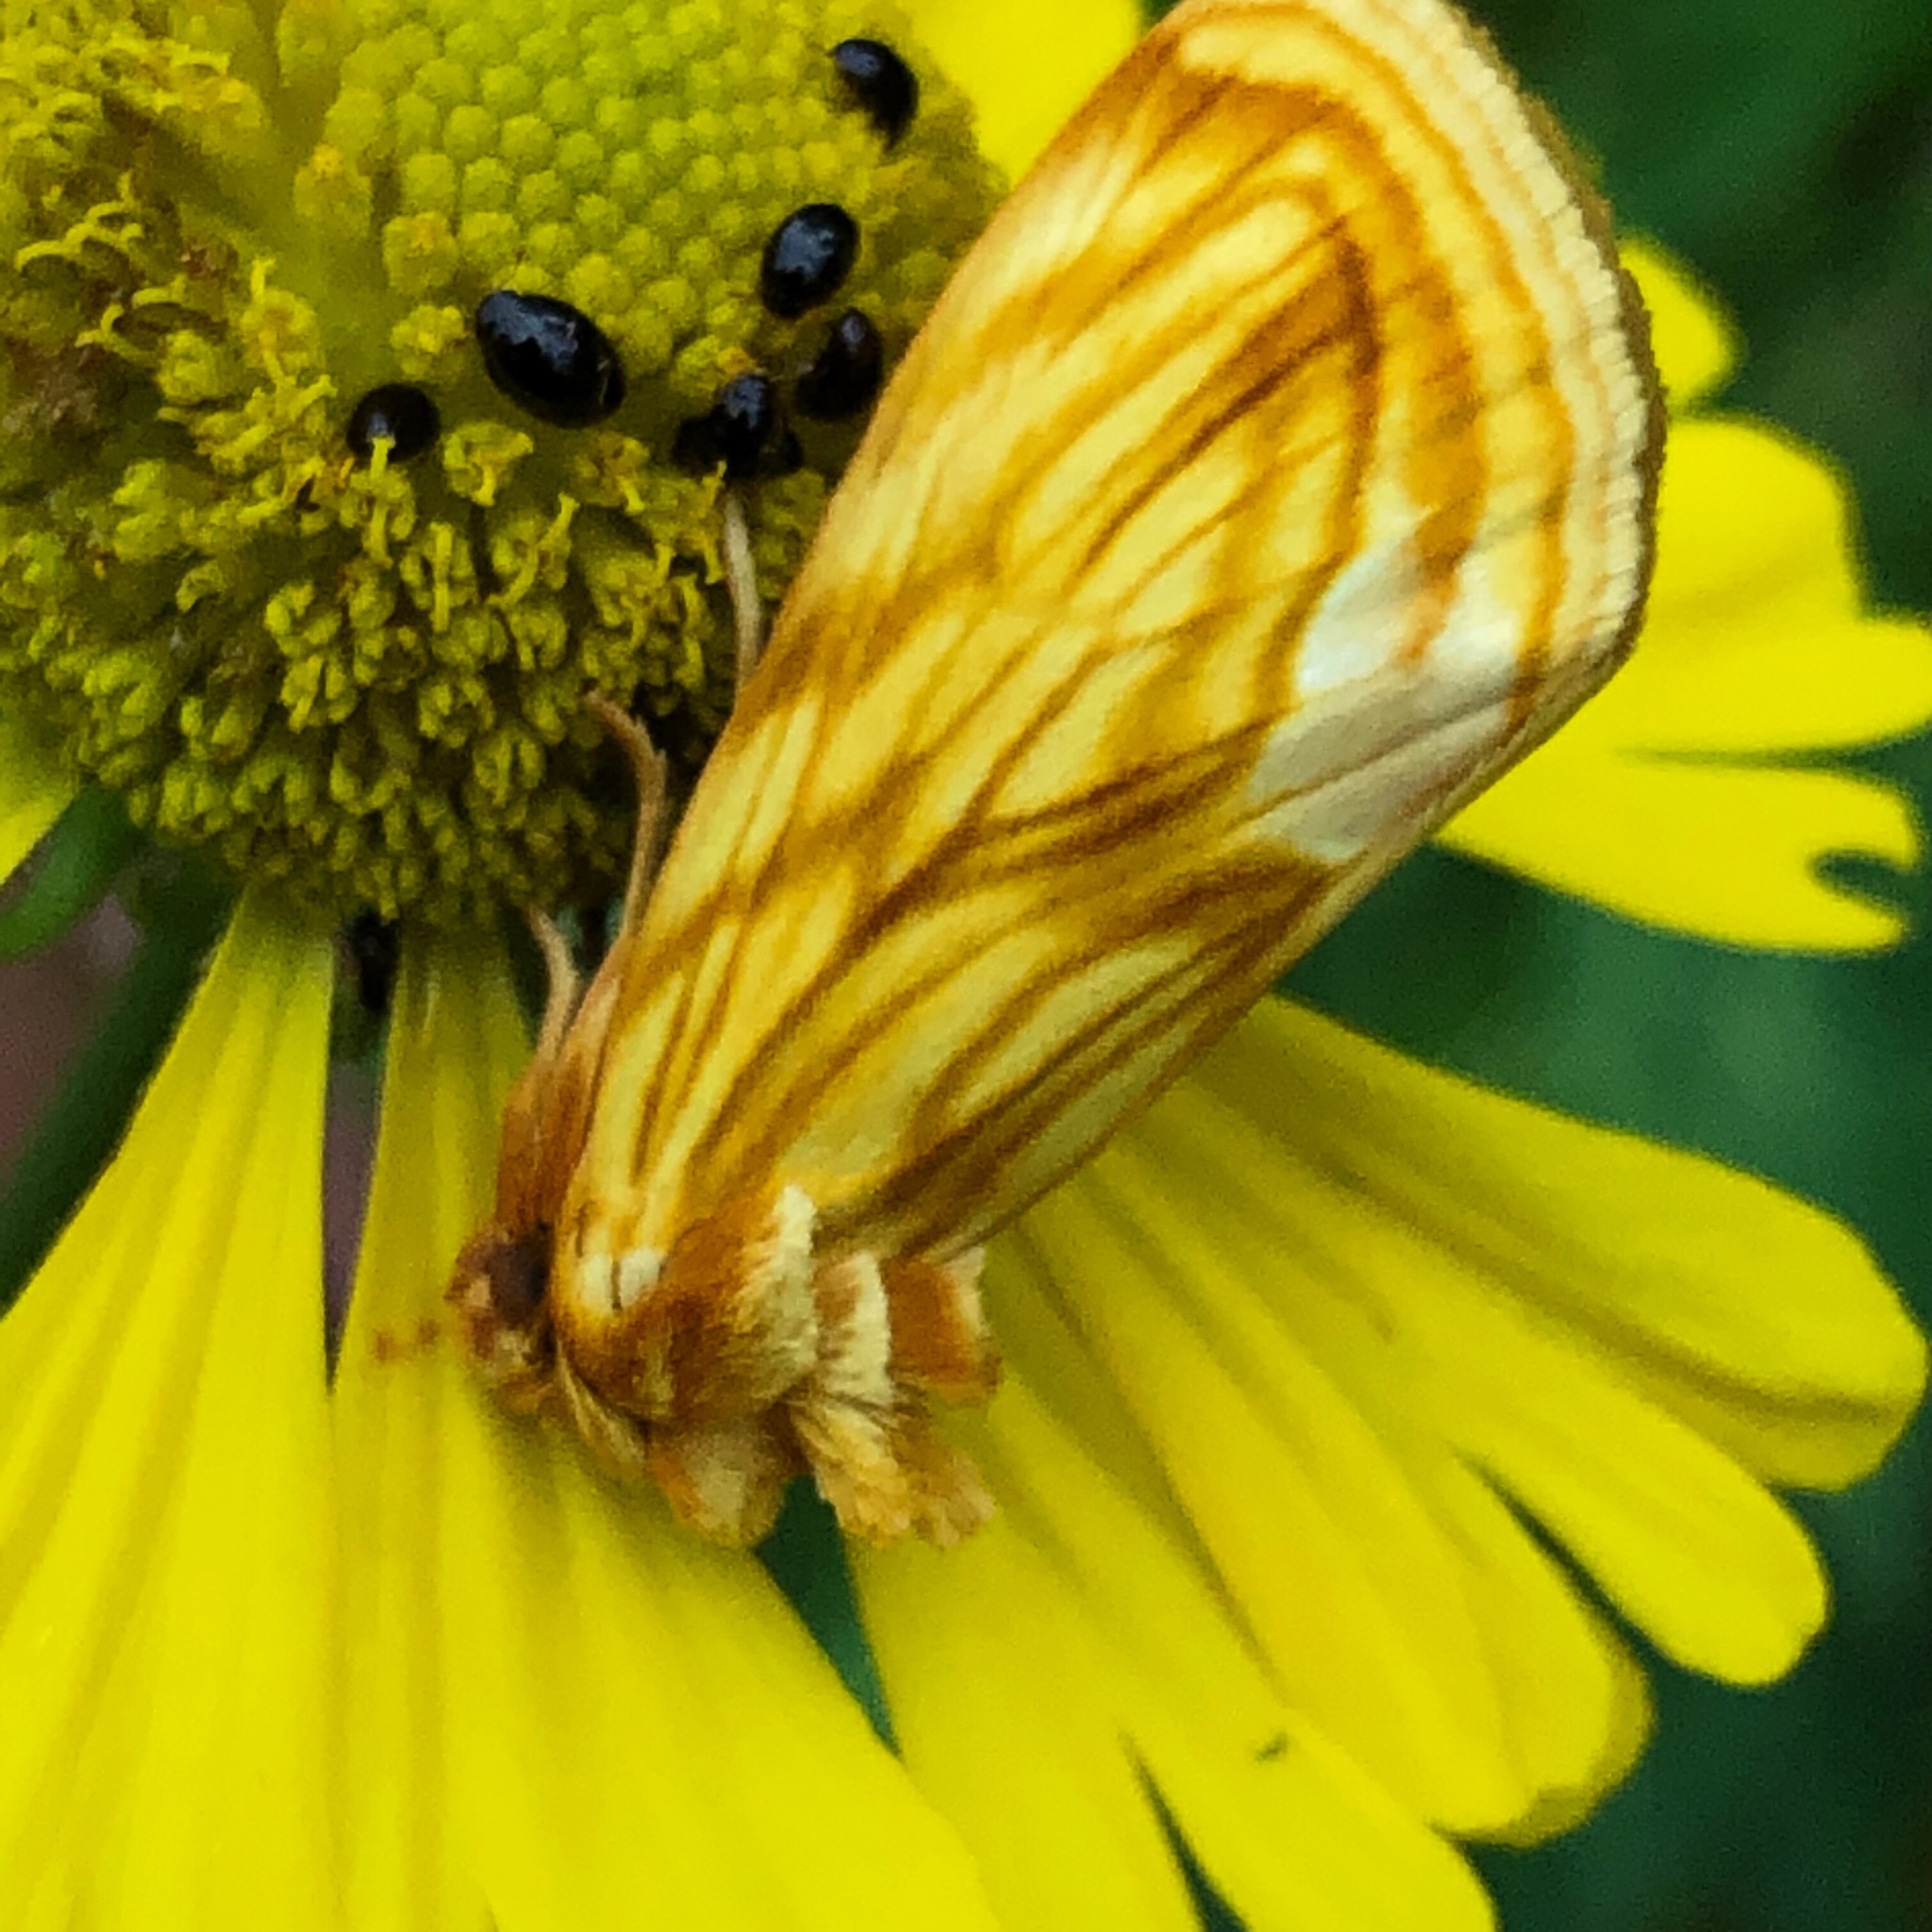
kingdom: Animalia
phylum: Arthropoda
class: Insecta
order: Lepidoptera
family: Noctuidae
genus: Cirrhophanus
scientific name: Cirrhophanus triangulifer
